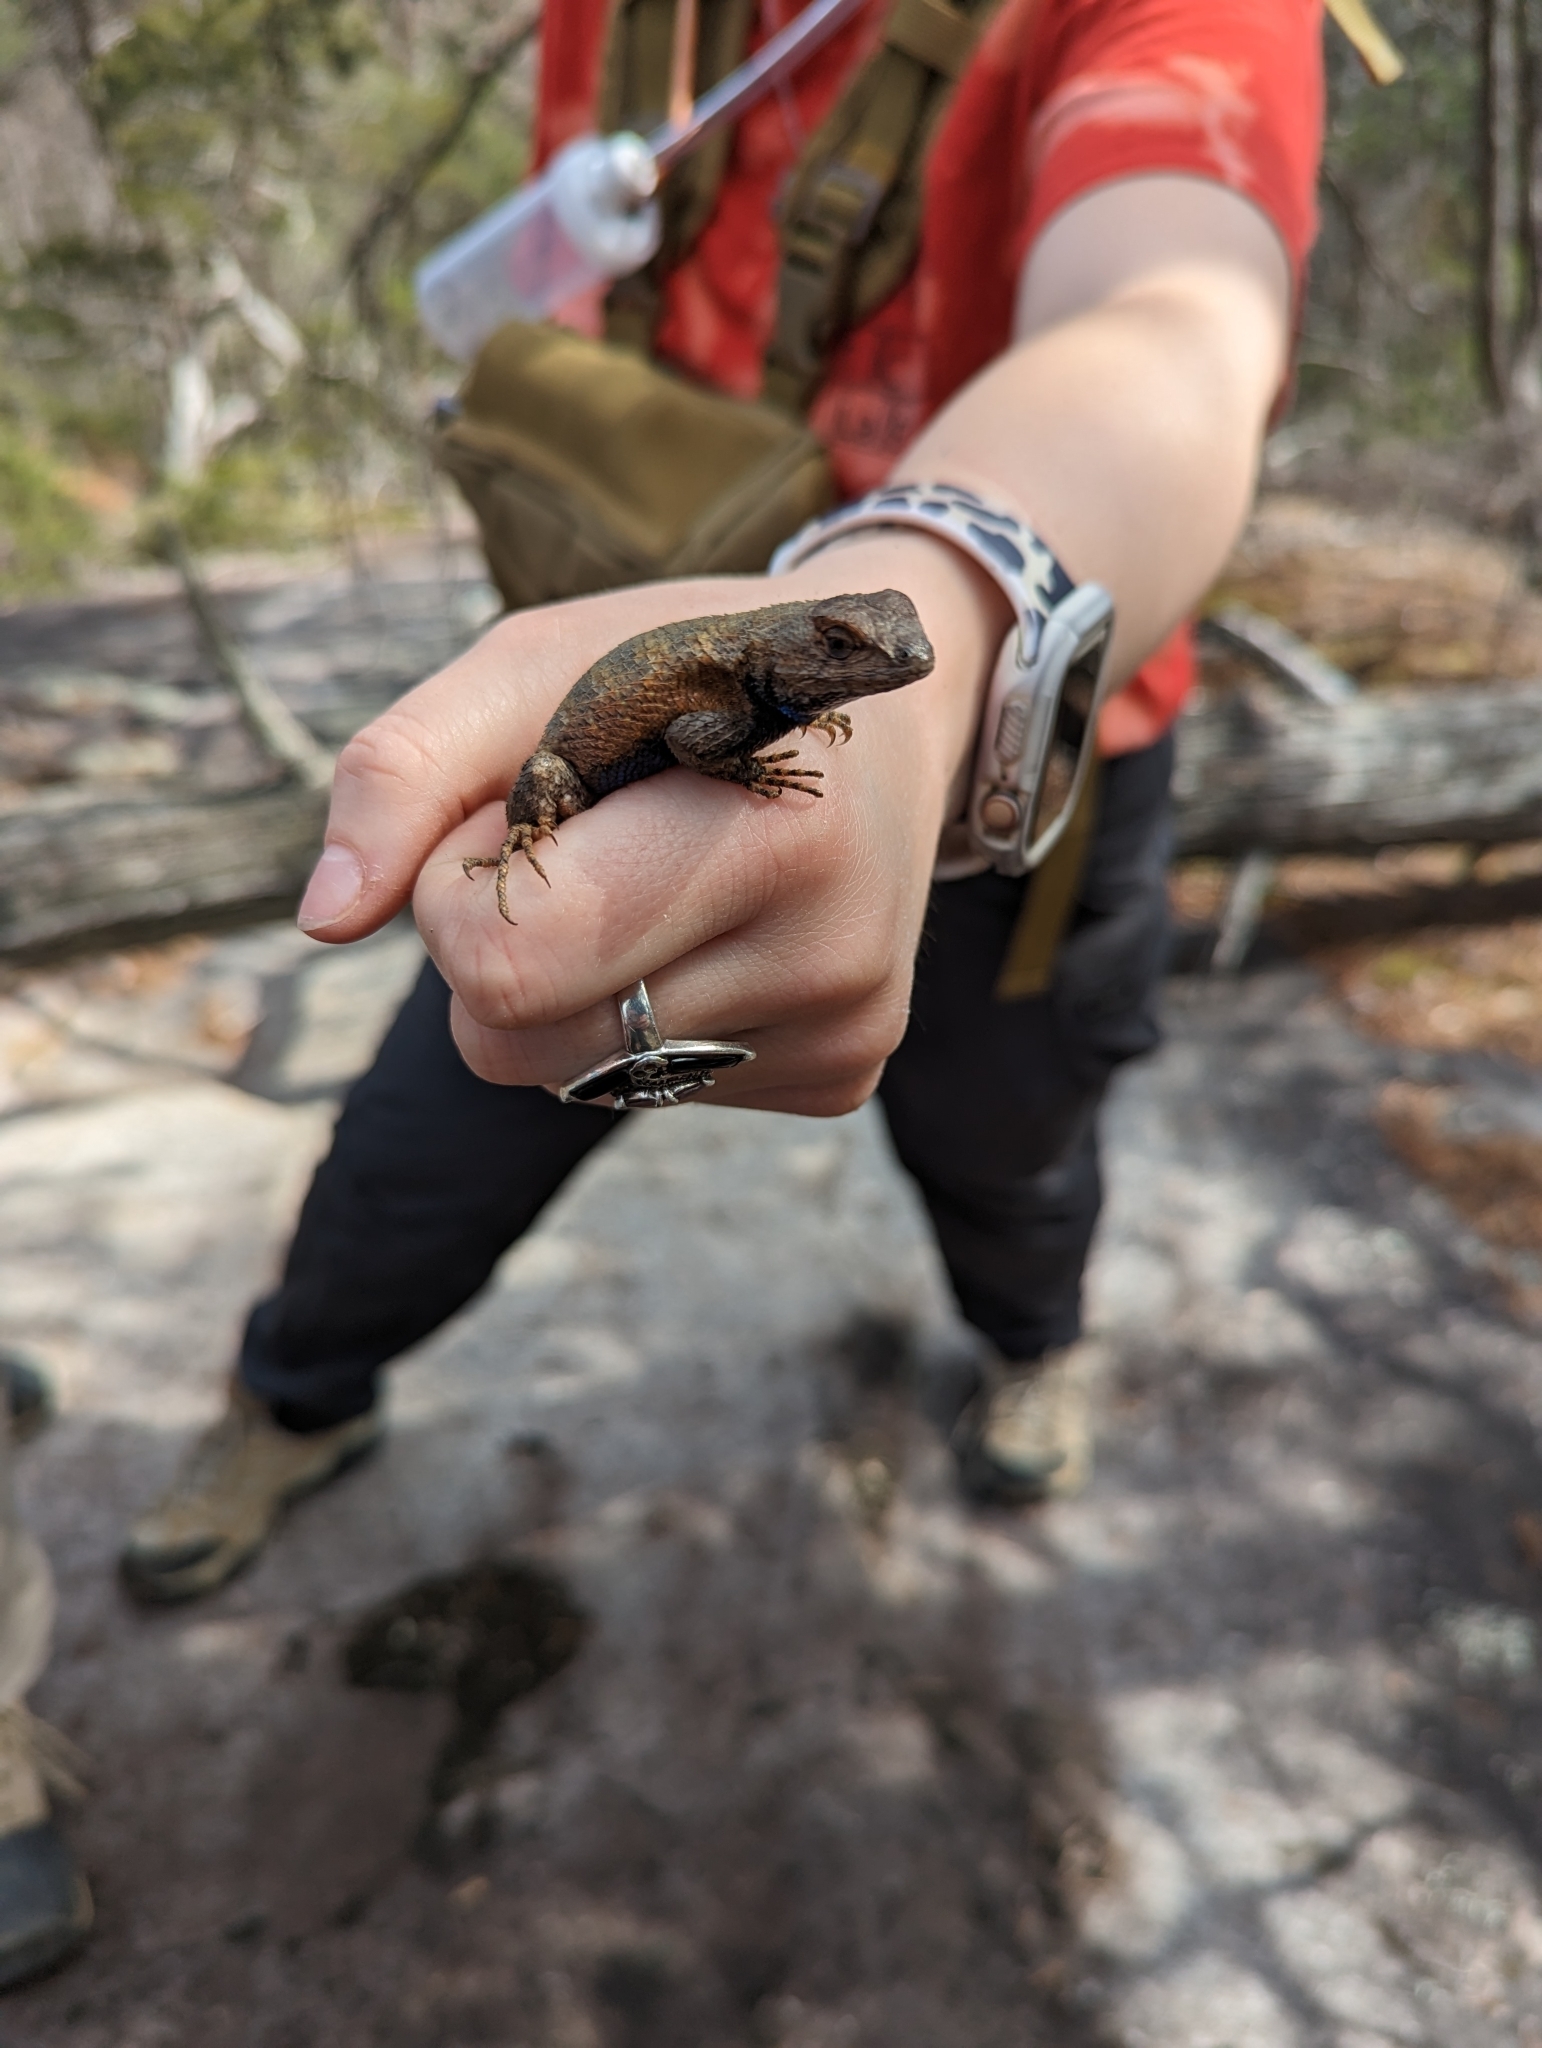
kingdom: Animalia
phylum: Chordata
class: Squamata
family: Phrynosomatidae
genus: Sceloporus
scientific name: Sceloporus undulatus
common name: Eastern fence lizard
